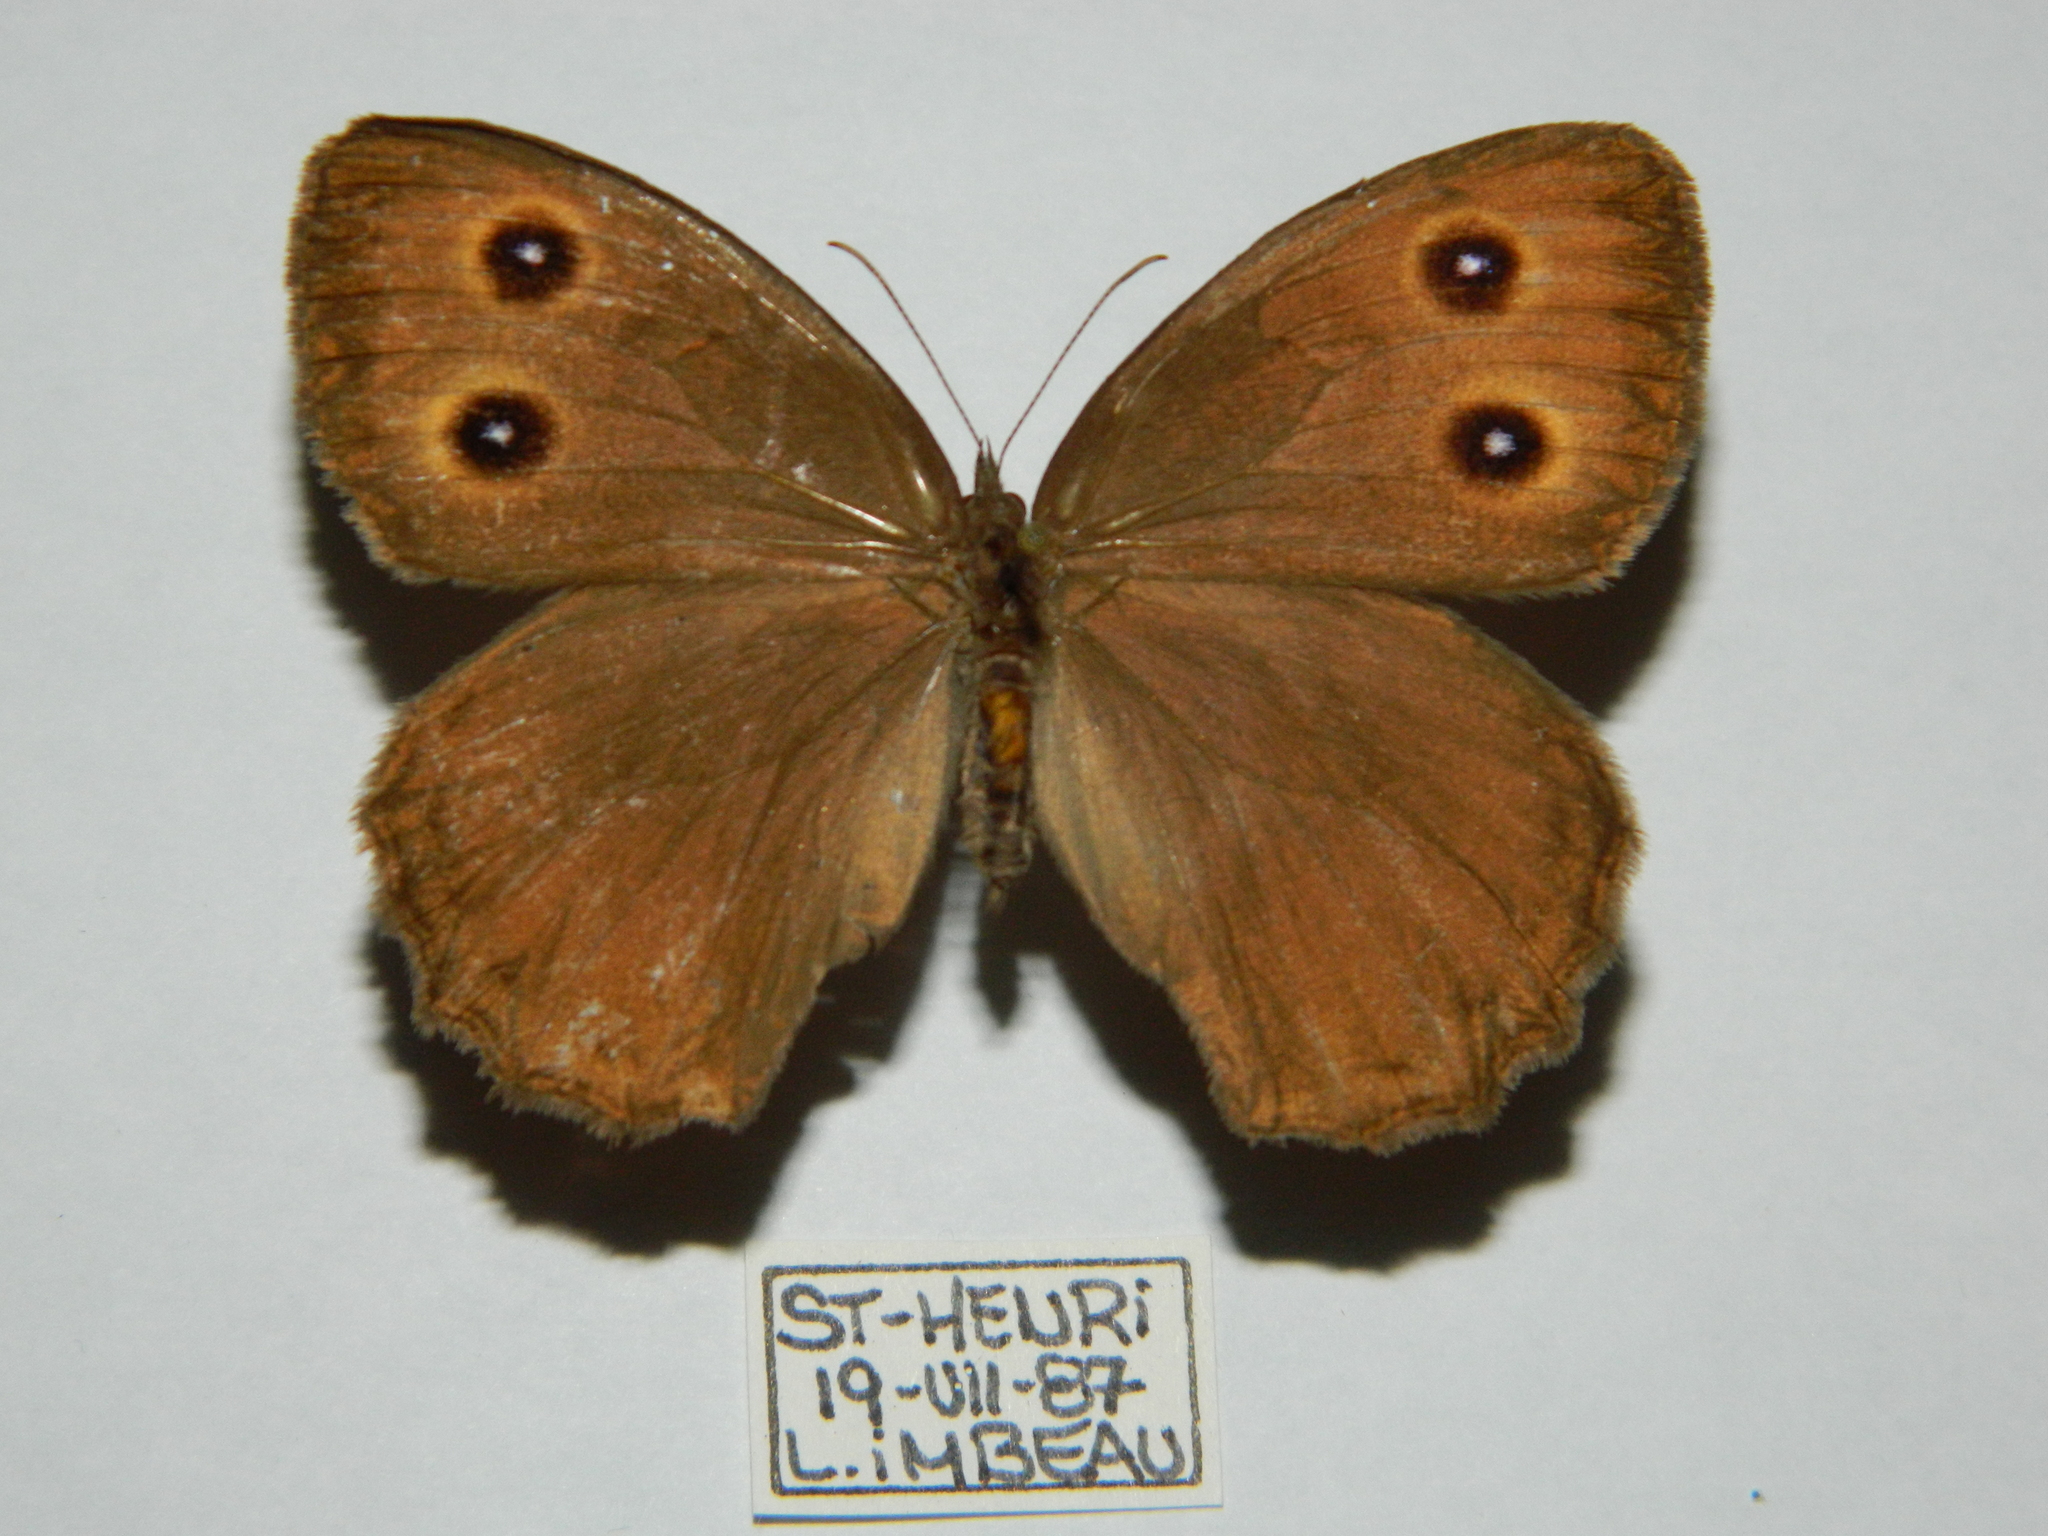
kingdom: Animalia
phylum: Arthropoda
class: Insecta
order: Lepidoptera
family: Nymphalidae
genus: Cercyonis
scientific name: Cercyonis pegala
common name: Common wood-nymph
